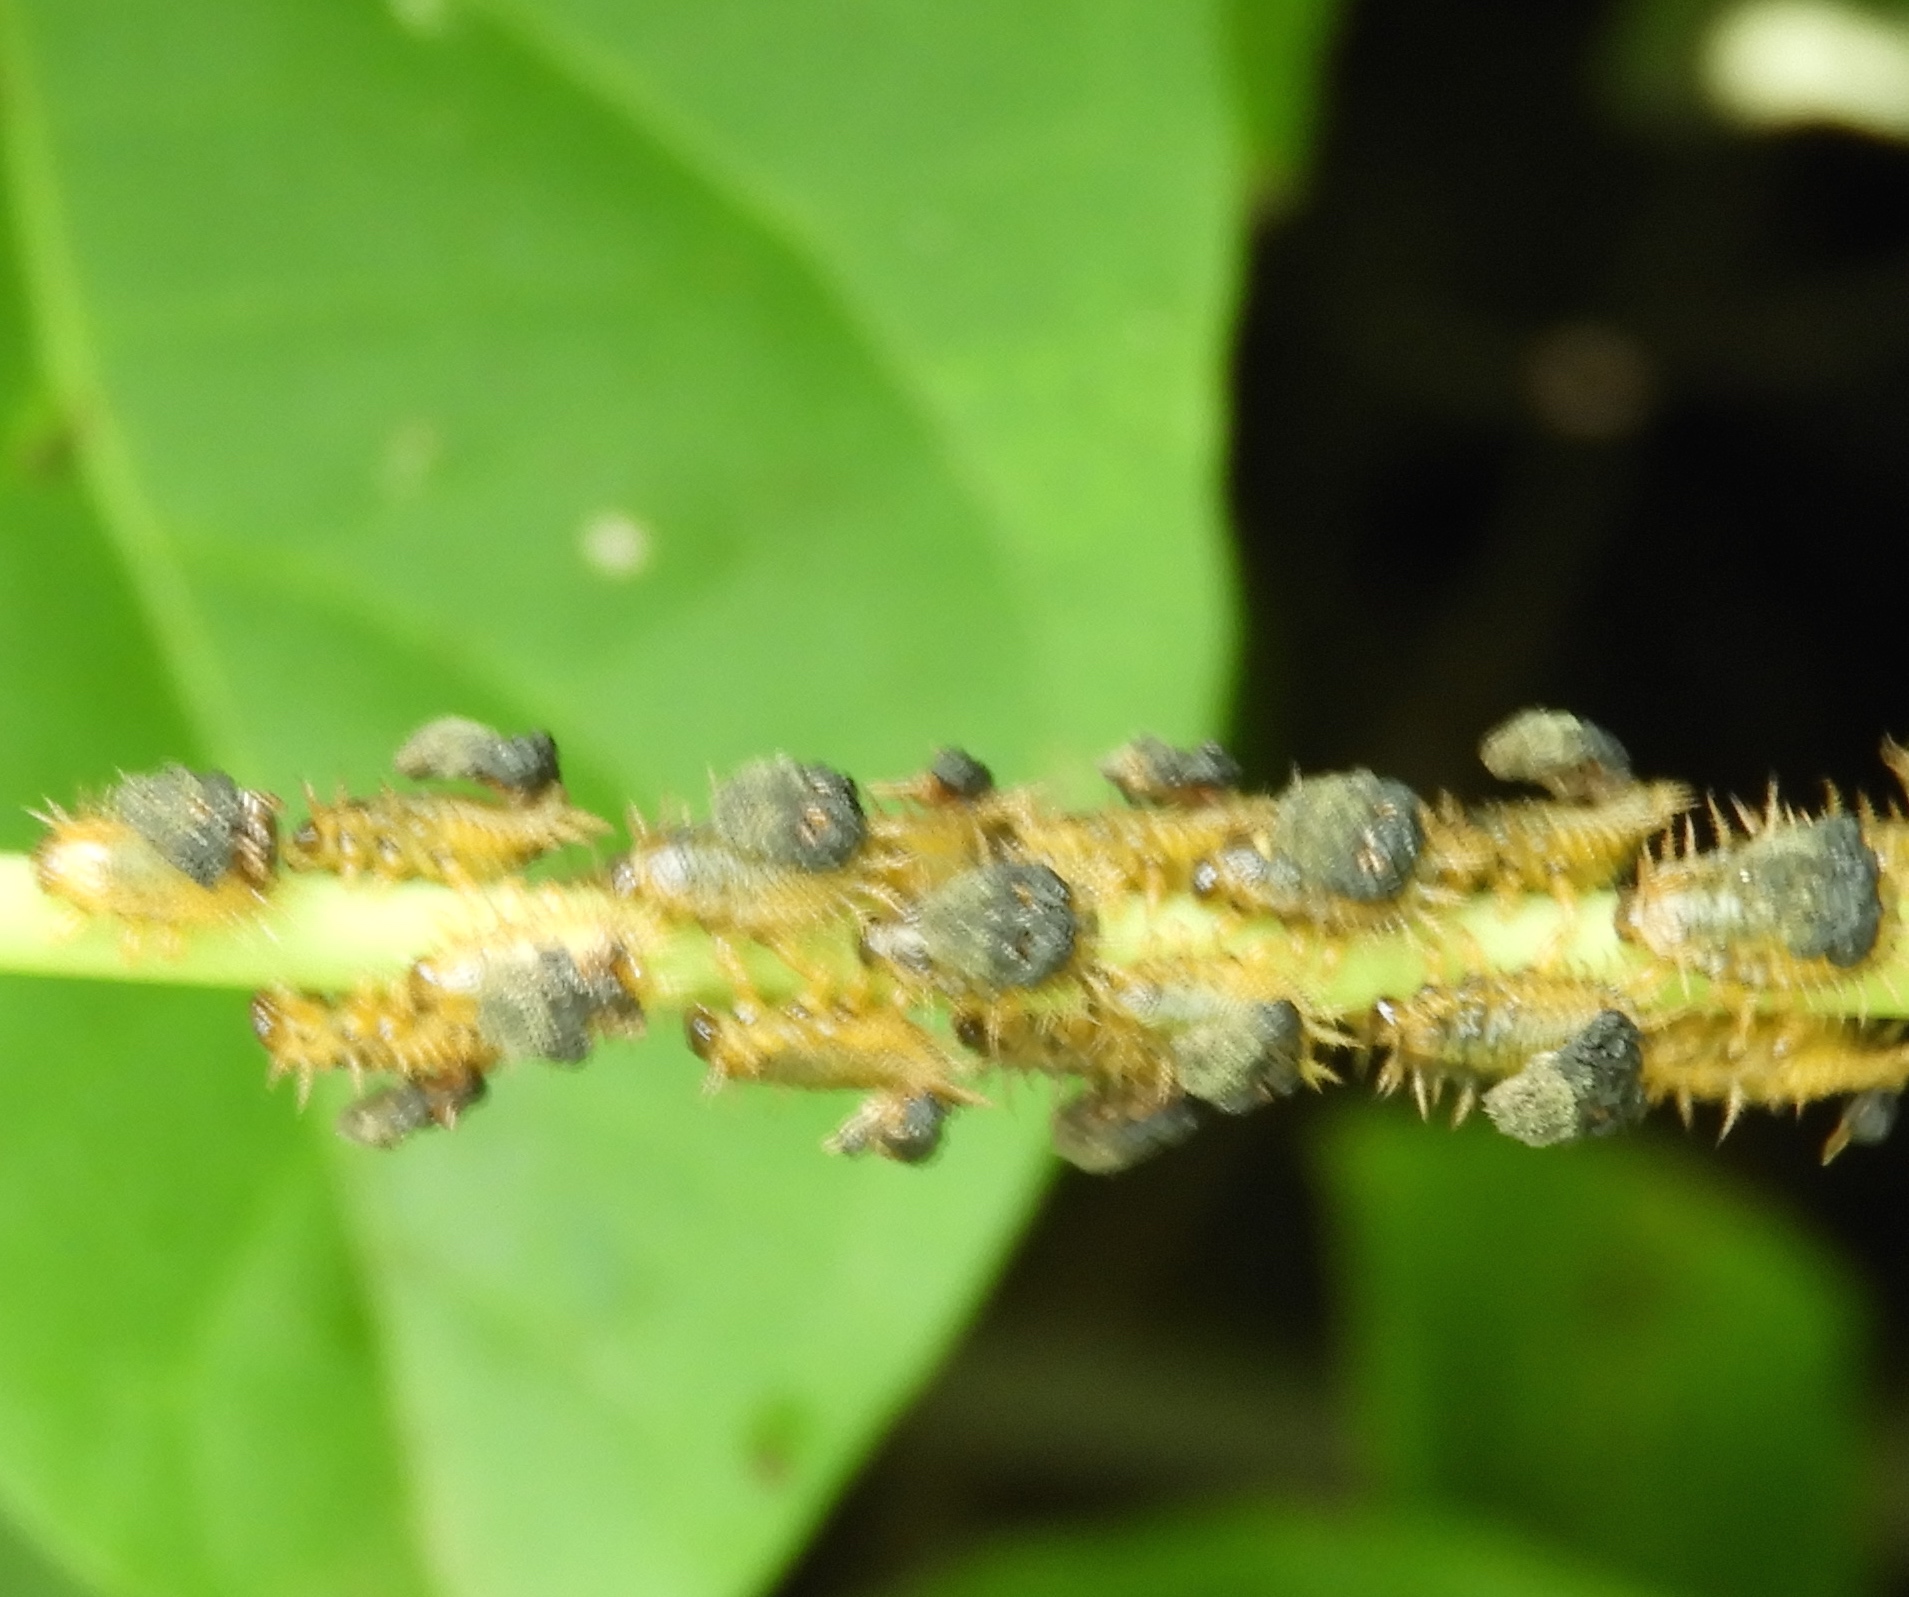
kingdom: Animalia
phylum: Arthropoda
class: Insecta
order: Coleoptera
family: Chrysomelidae
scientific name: Chrysomelidae
